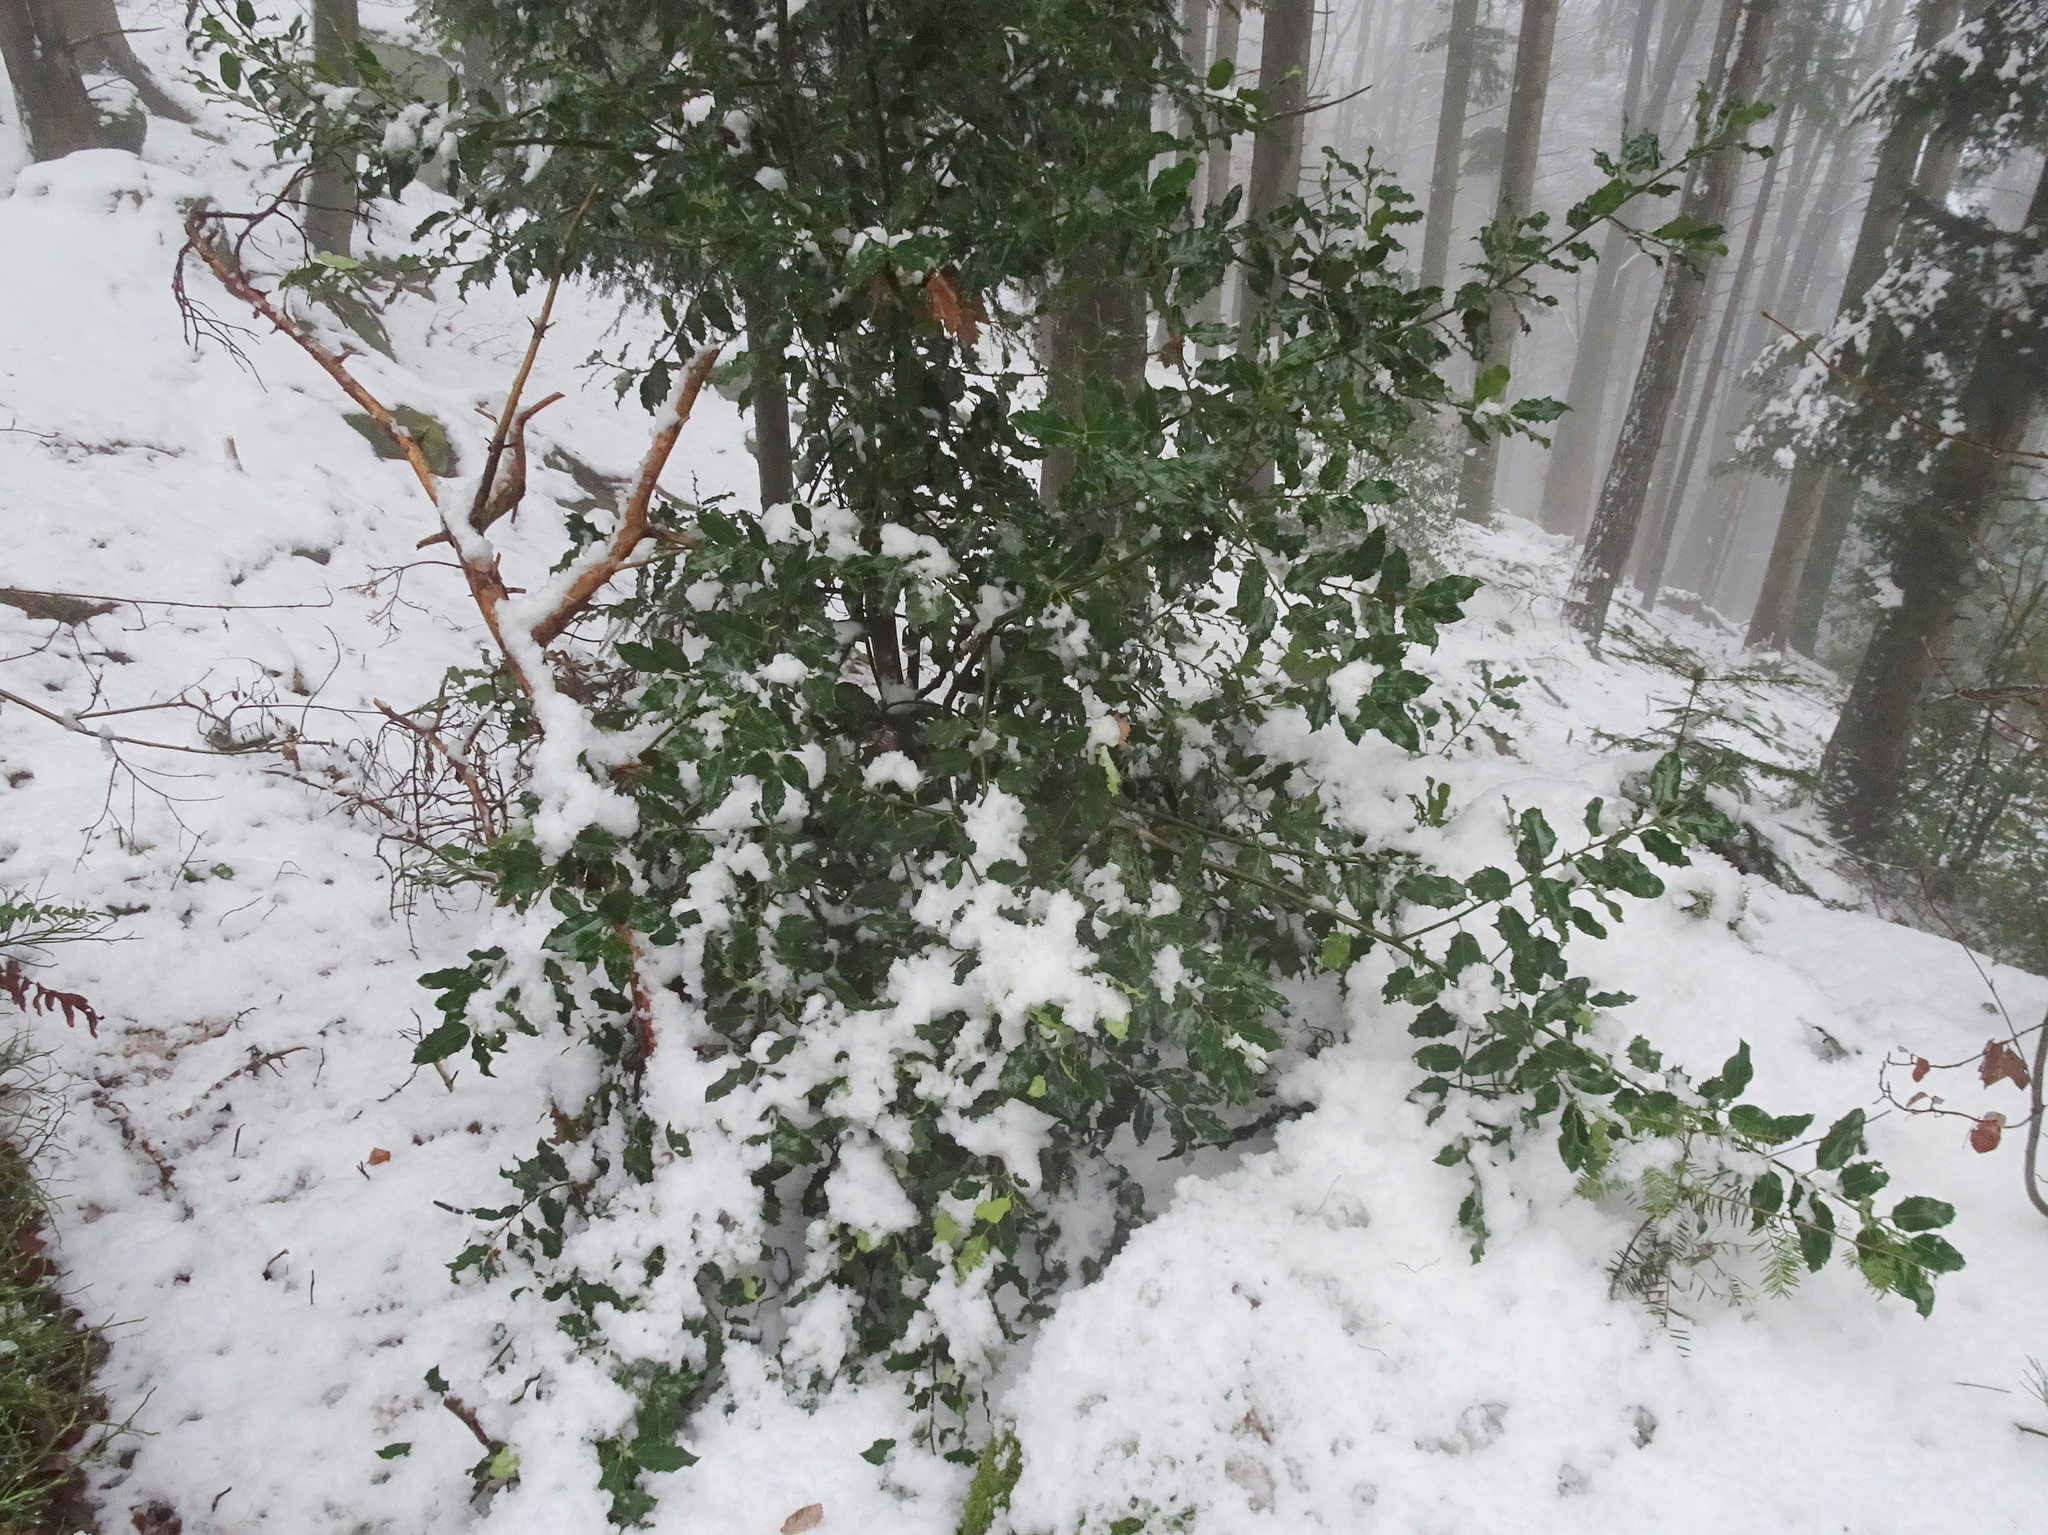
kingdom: Plantae
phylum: Tracheophyta
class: Magnoliopsida
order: Aquifoliales
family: Aquifoliaceae
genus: Ilex
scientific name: Ilex aquifolium
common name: English holly
